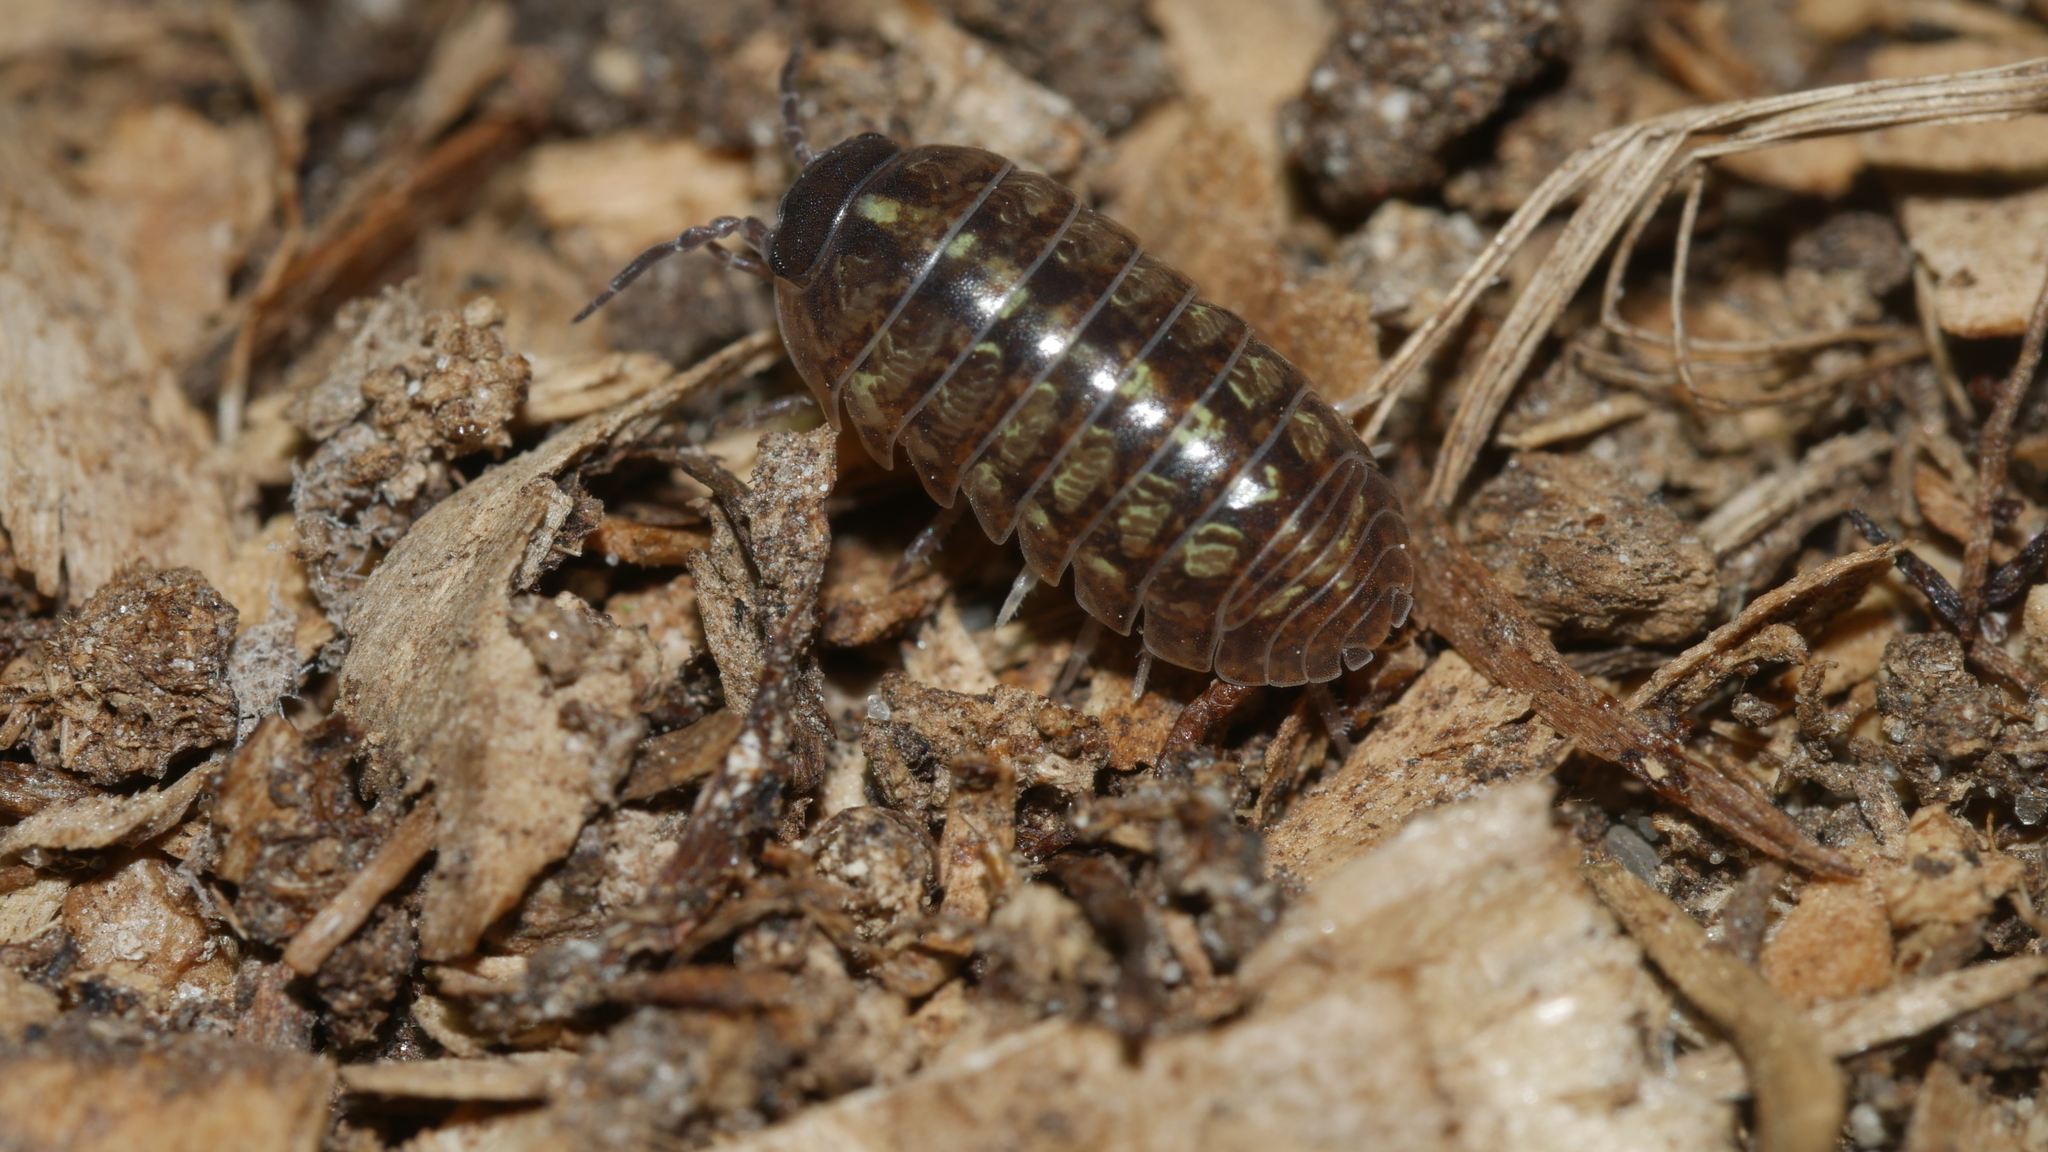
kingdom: Animalia
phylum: Arthropoda
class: Malacostraca
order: Isopoda
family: Armadillidiidae
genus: Armadillidium
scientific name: Armadillidium vulgare
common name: Common pill woodlouse
